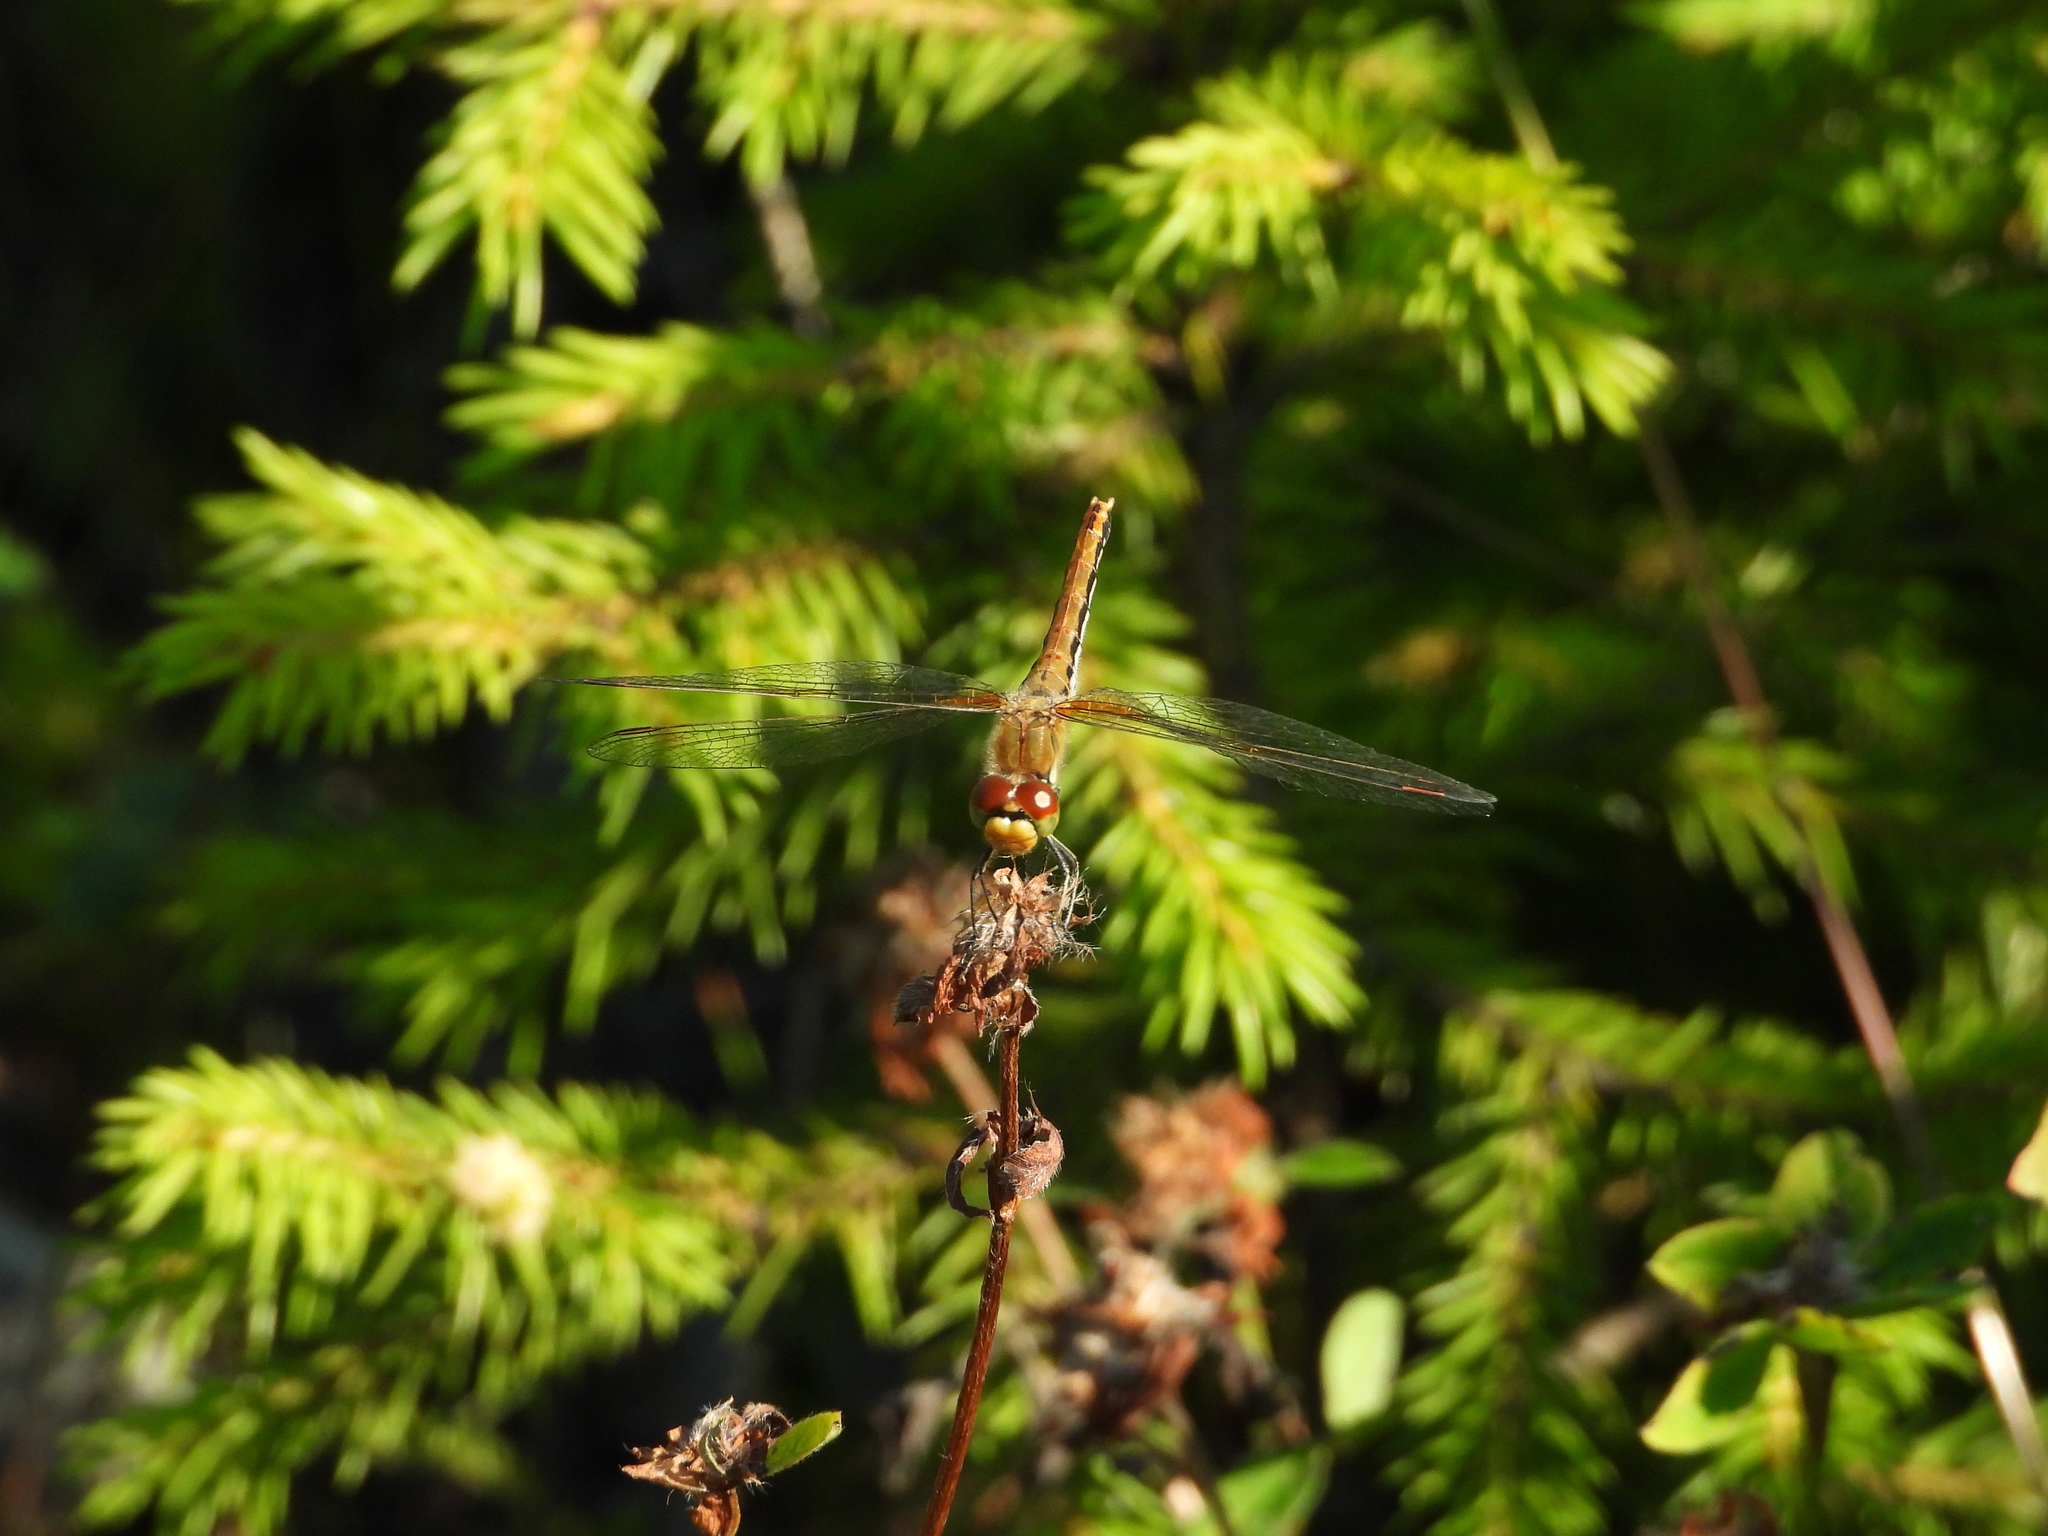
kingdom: Animalia
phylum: Arthropoda
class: Insecta
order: Odonata
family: Libellulidae
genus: Sympetrum
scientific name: Sympetrum flaveolum
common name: Yellow-winged darter
